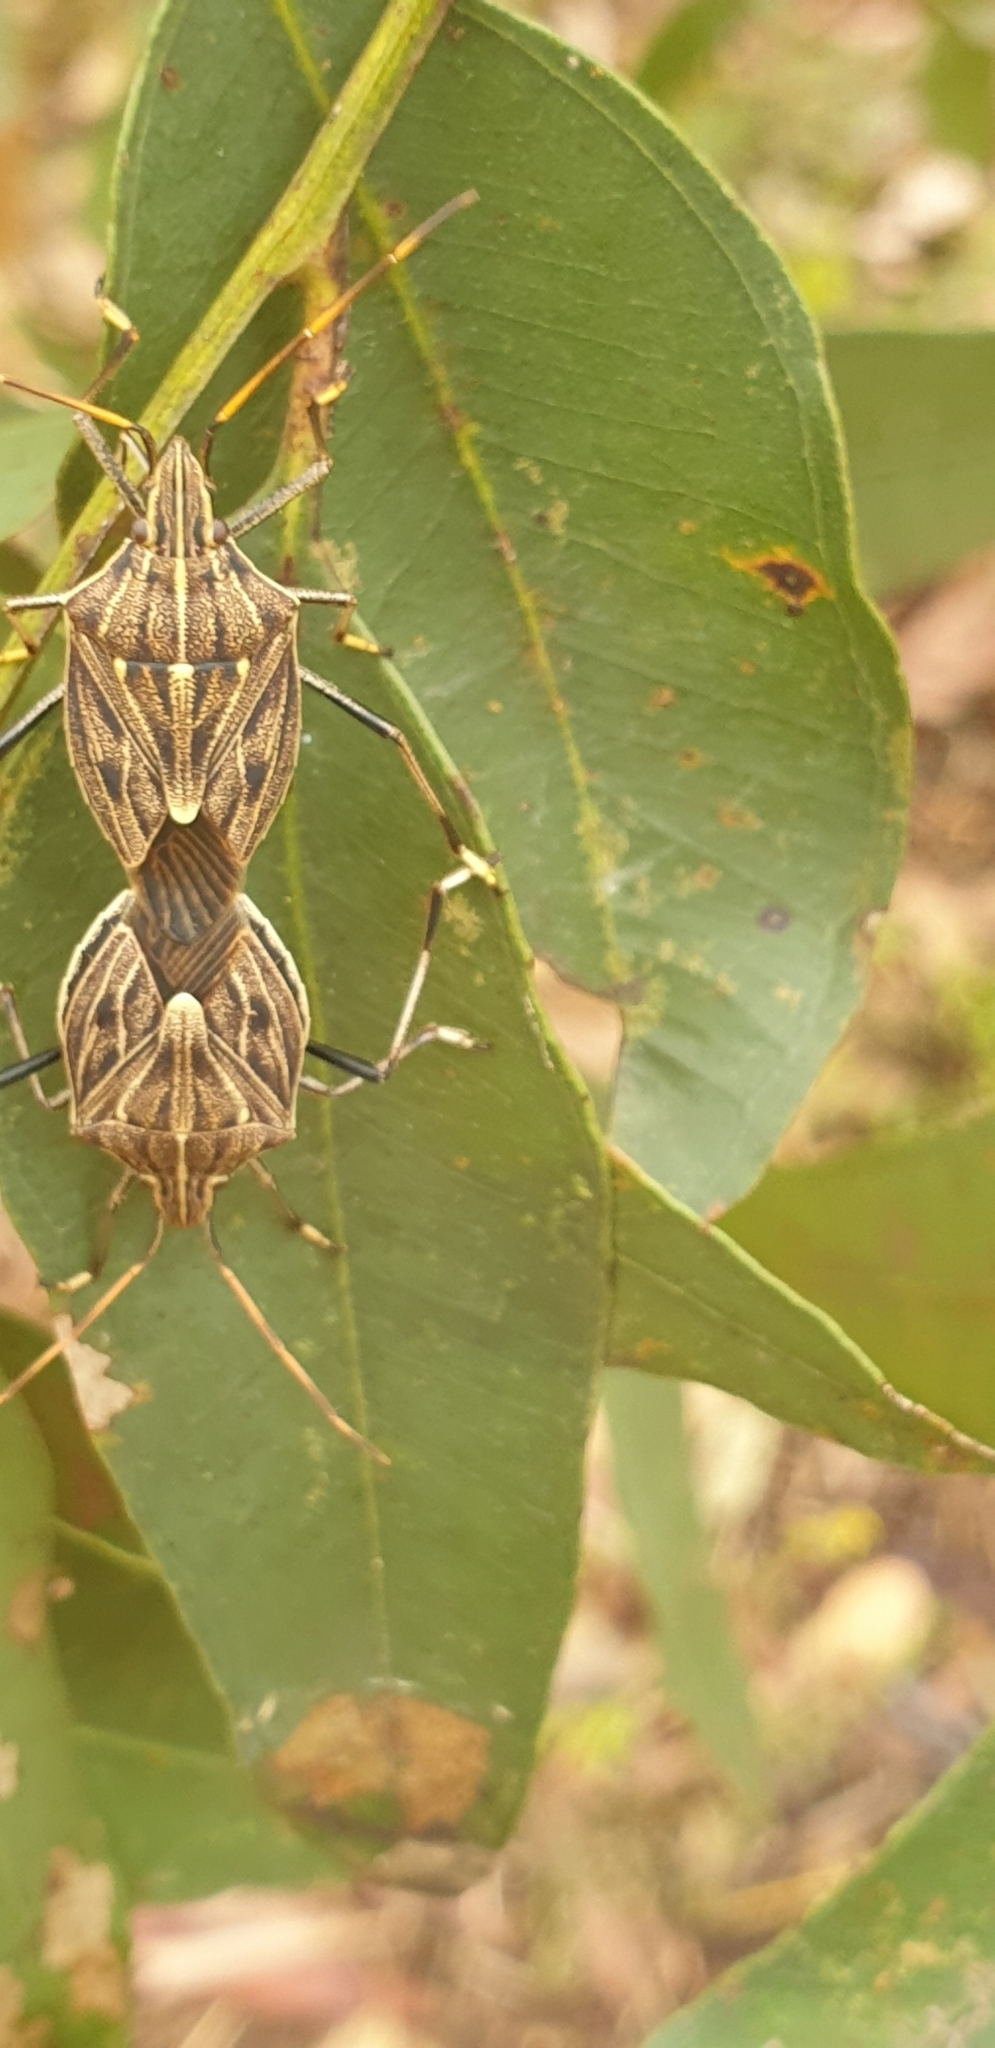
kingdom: Animalia
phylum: Arthropoda
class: Insecta
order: Hemiptera
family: Pentatomidae
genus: Poecilometis
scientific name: Poecilometis
